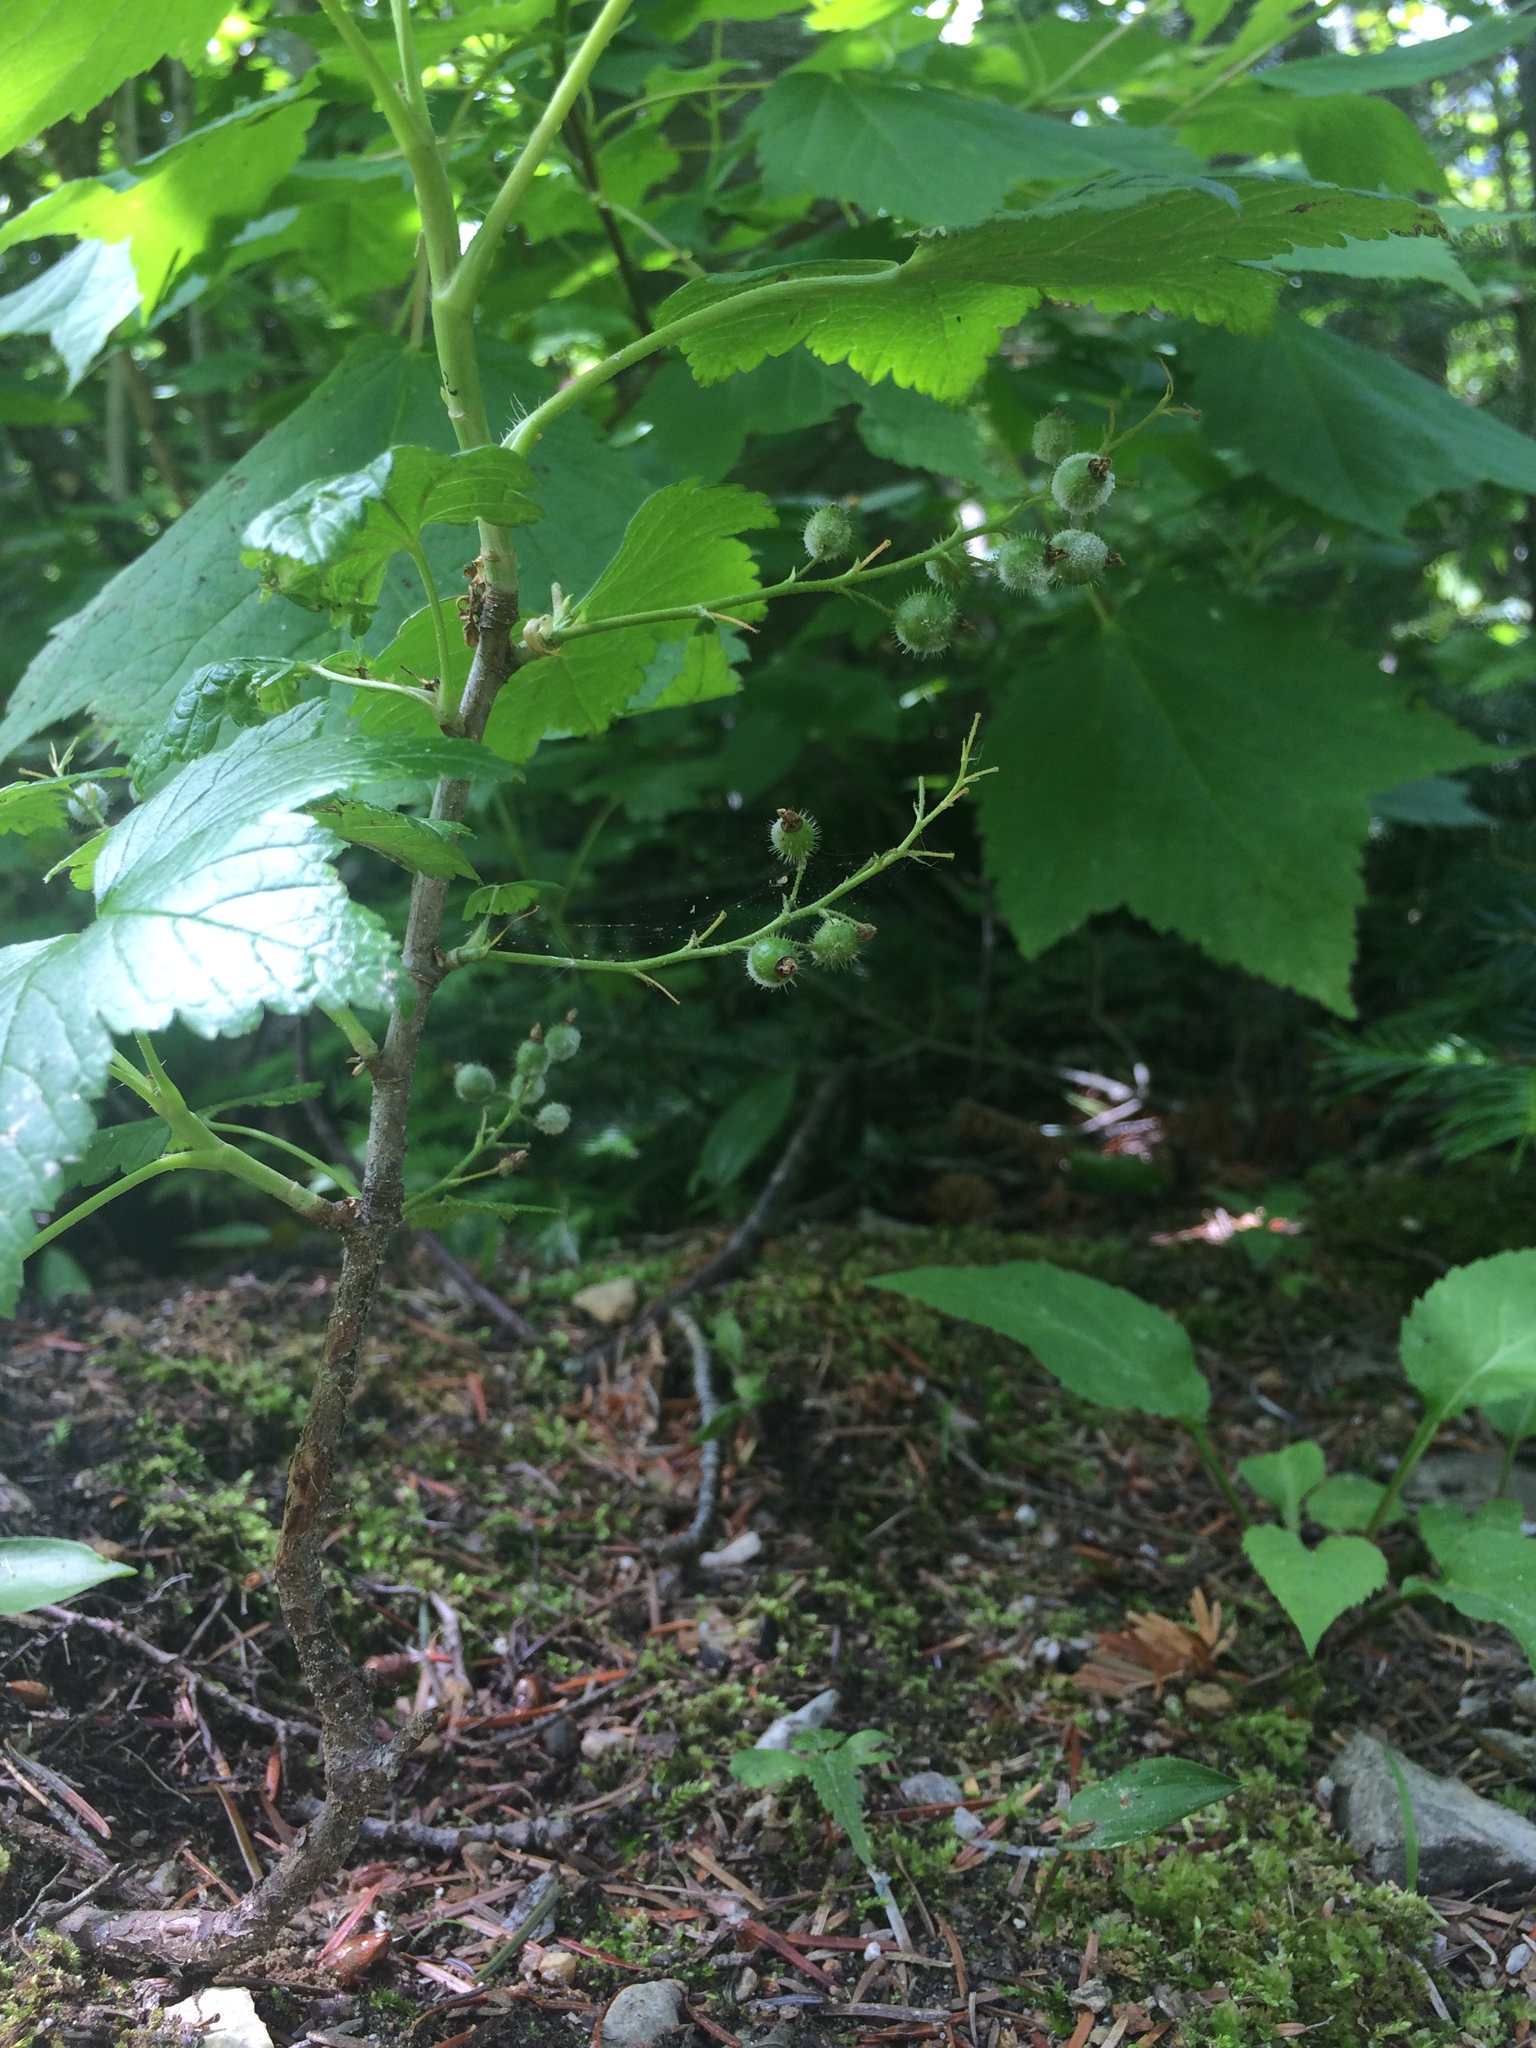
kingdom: Plantae
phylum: Tracheophyta
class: Magnoliopsida
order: Saxifragales
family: Grossulariaceae
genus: Ribes
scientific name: Ribes glandulosum
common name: Skunk currant
